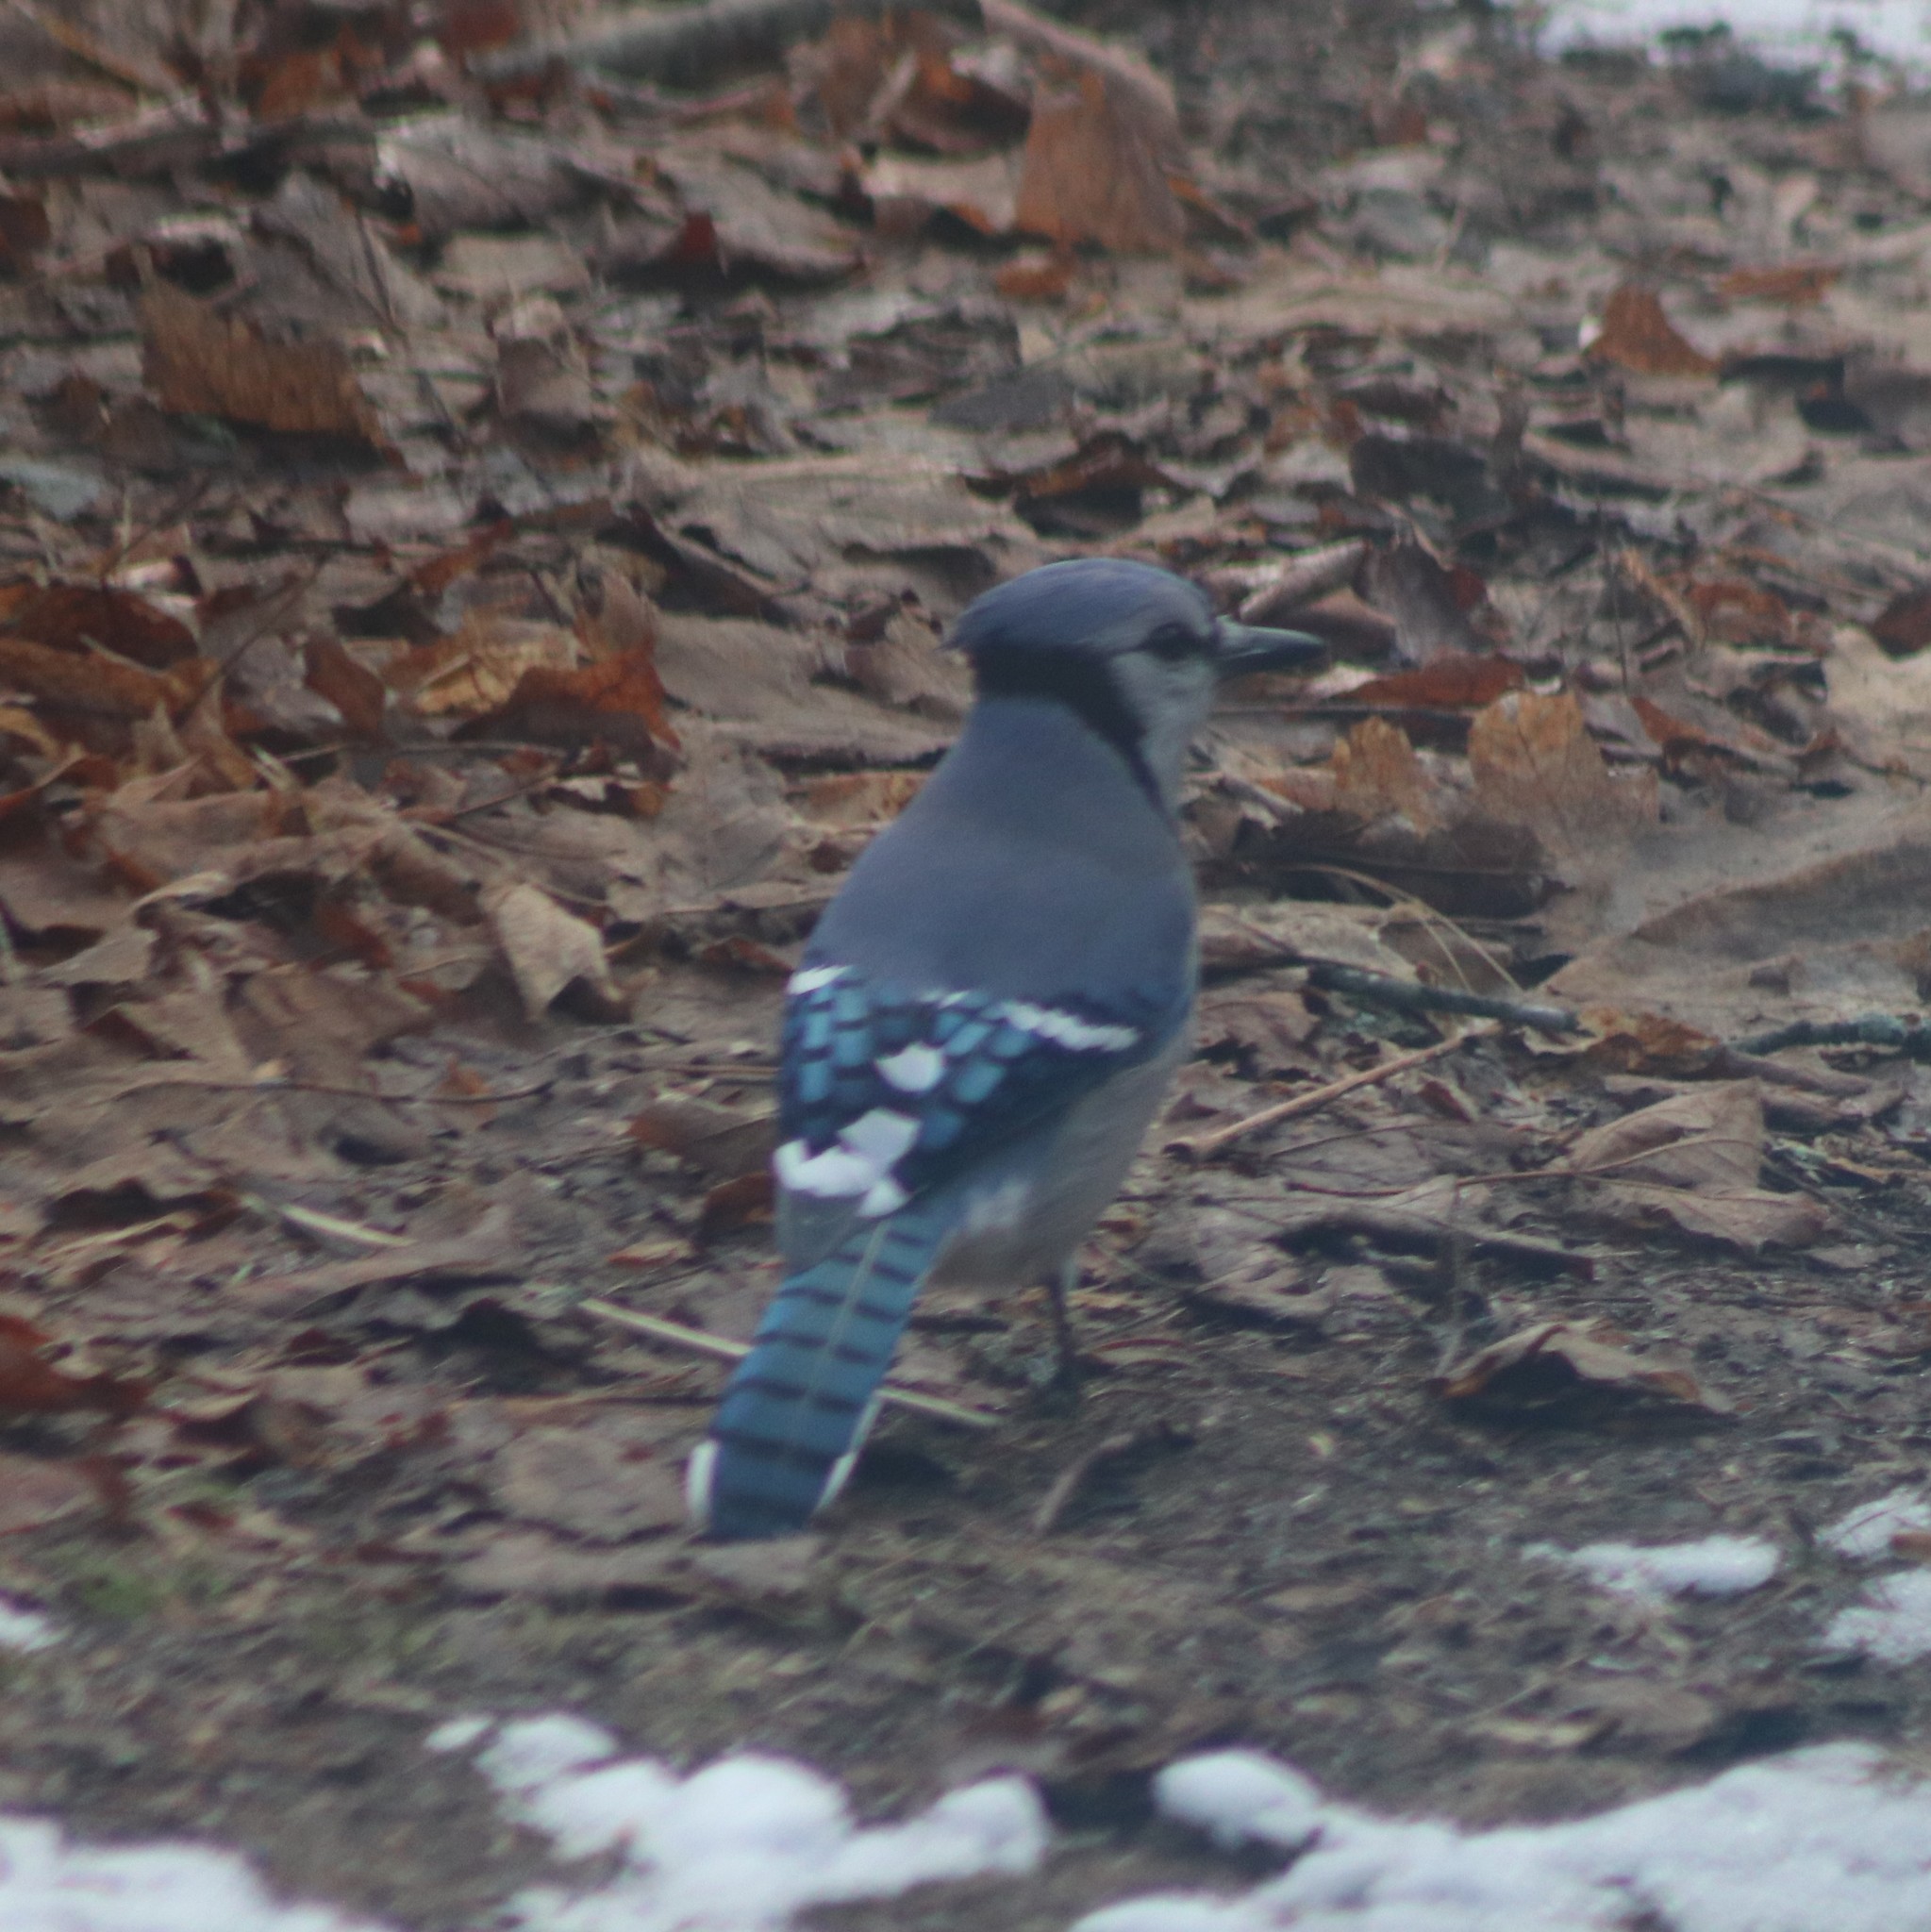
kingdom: Animalia
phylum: Chordata
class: Aves
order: Passeriformes
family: Corvidae
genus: Cyanocitta
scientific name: Cyanocitta cristata
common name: Blue jay
